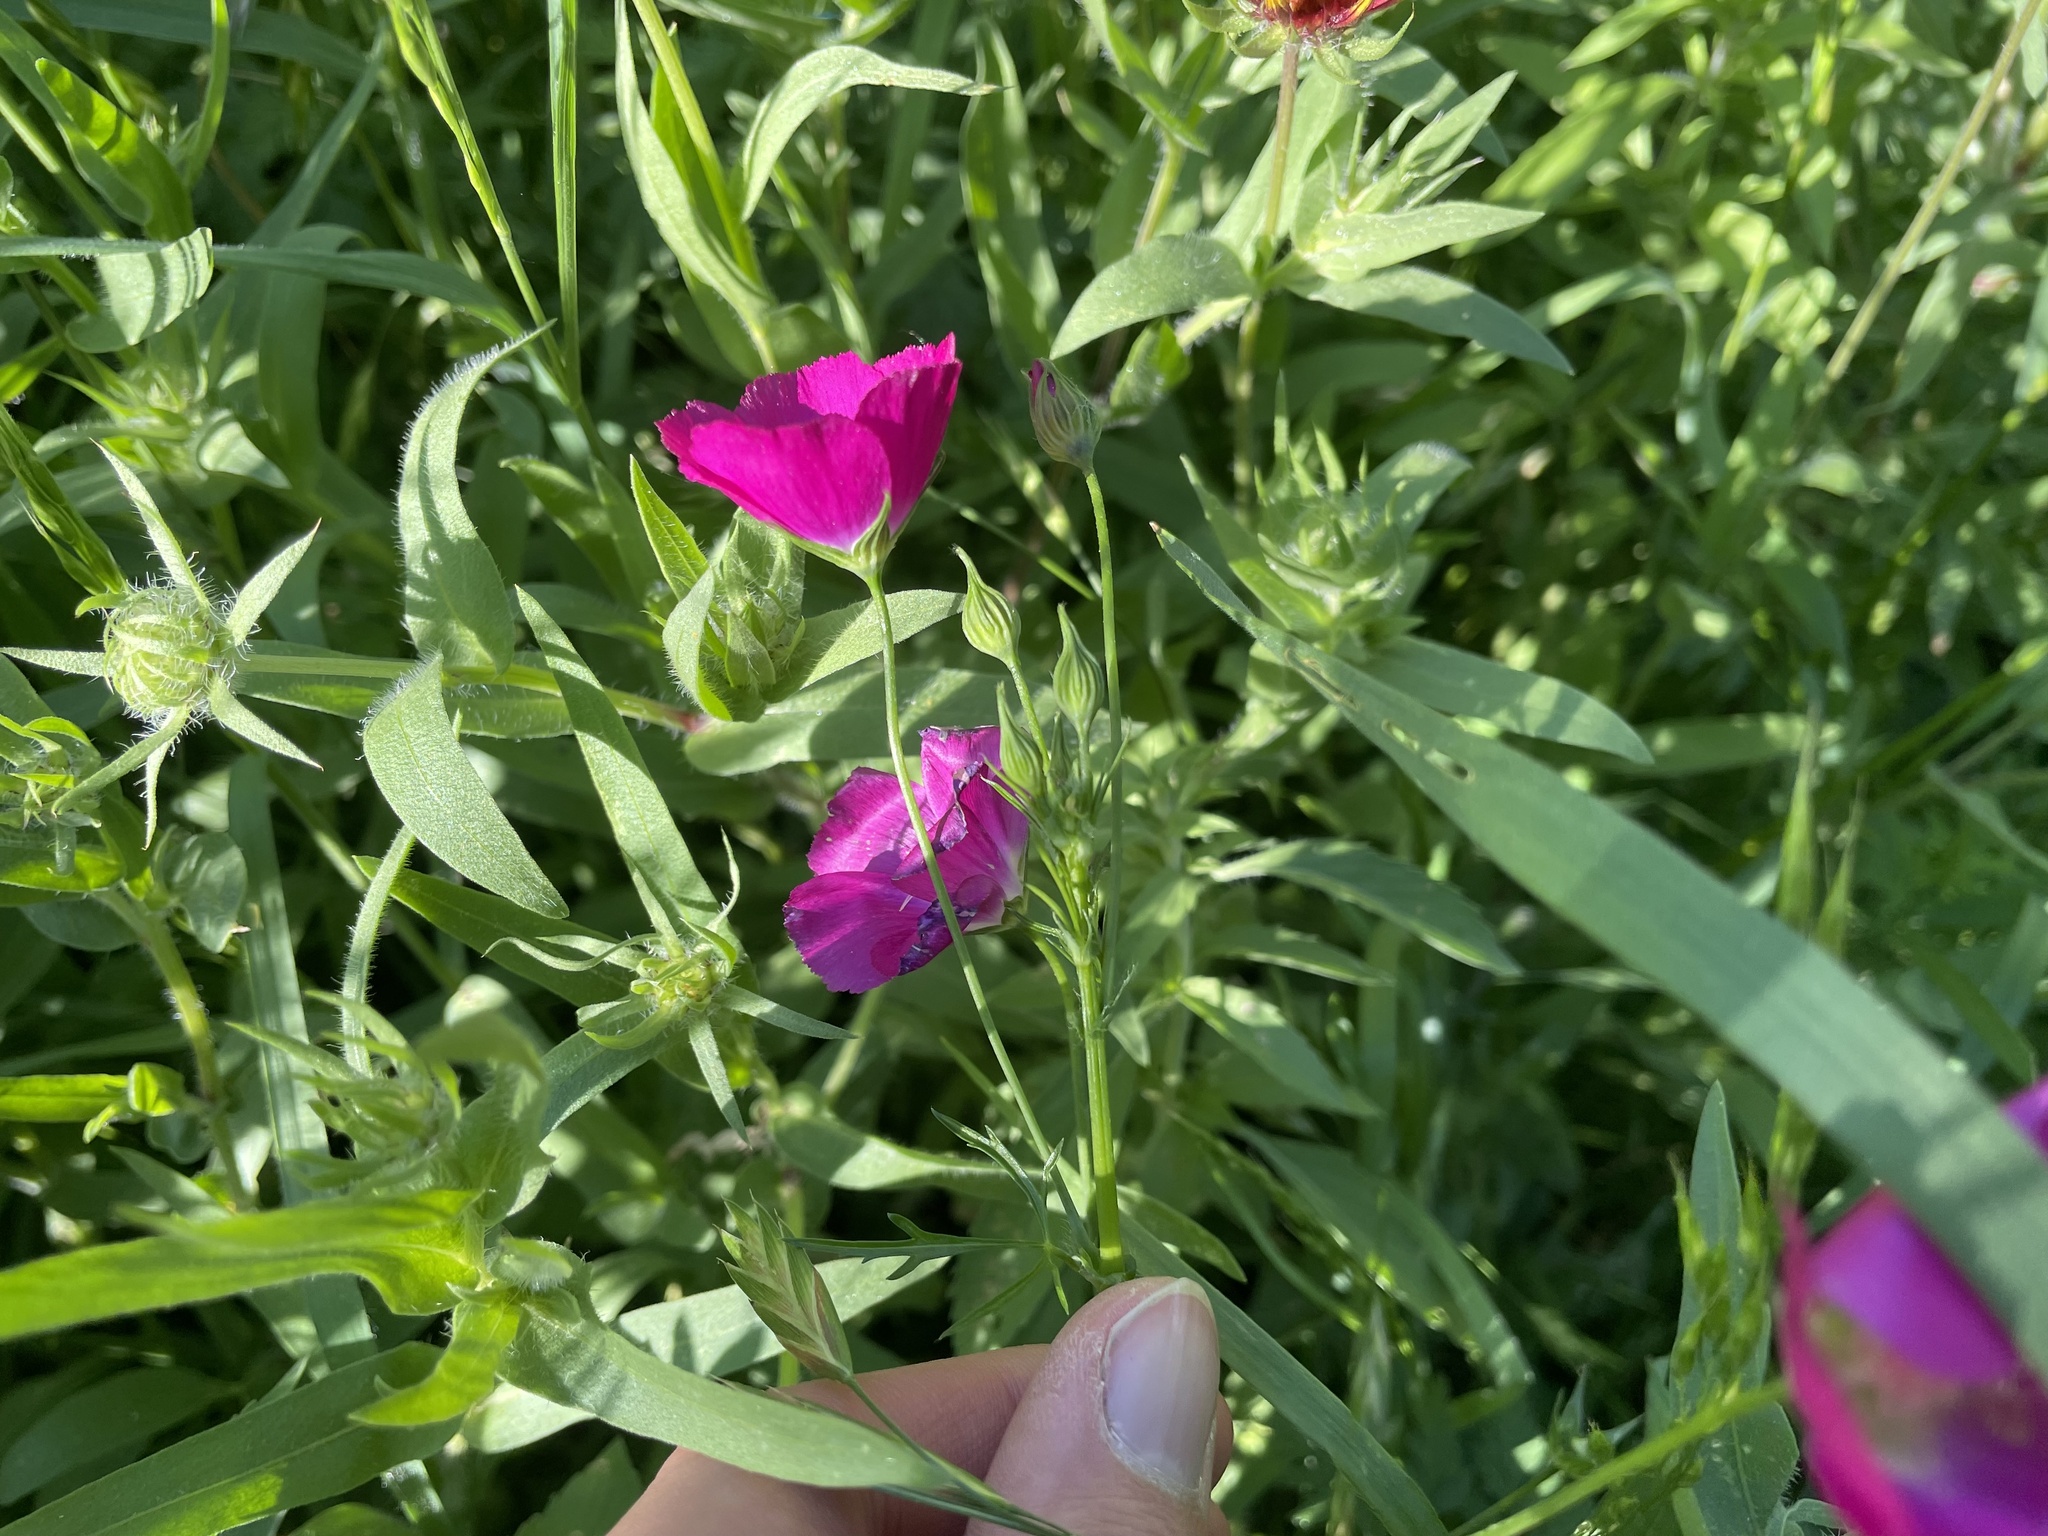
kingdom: Plantae
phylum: Tracheophyta
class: Magnoliopsida
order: Malvales
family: Malvaceae
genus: Callirhoe
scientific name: Callirhoe leiocarpa
